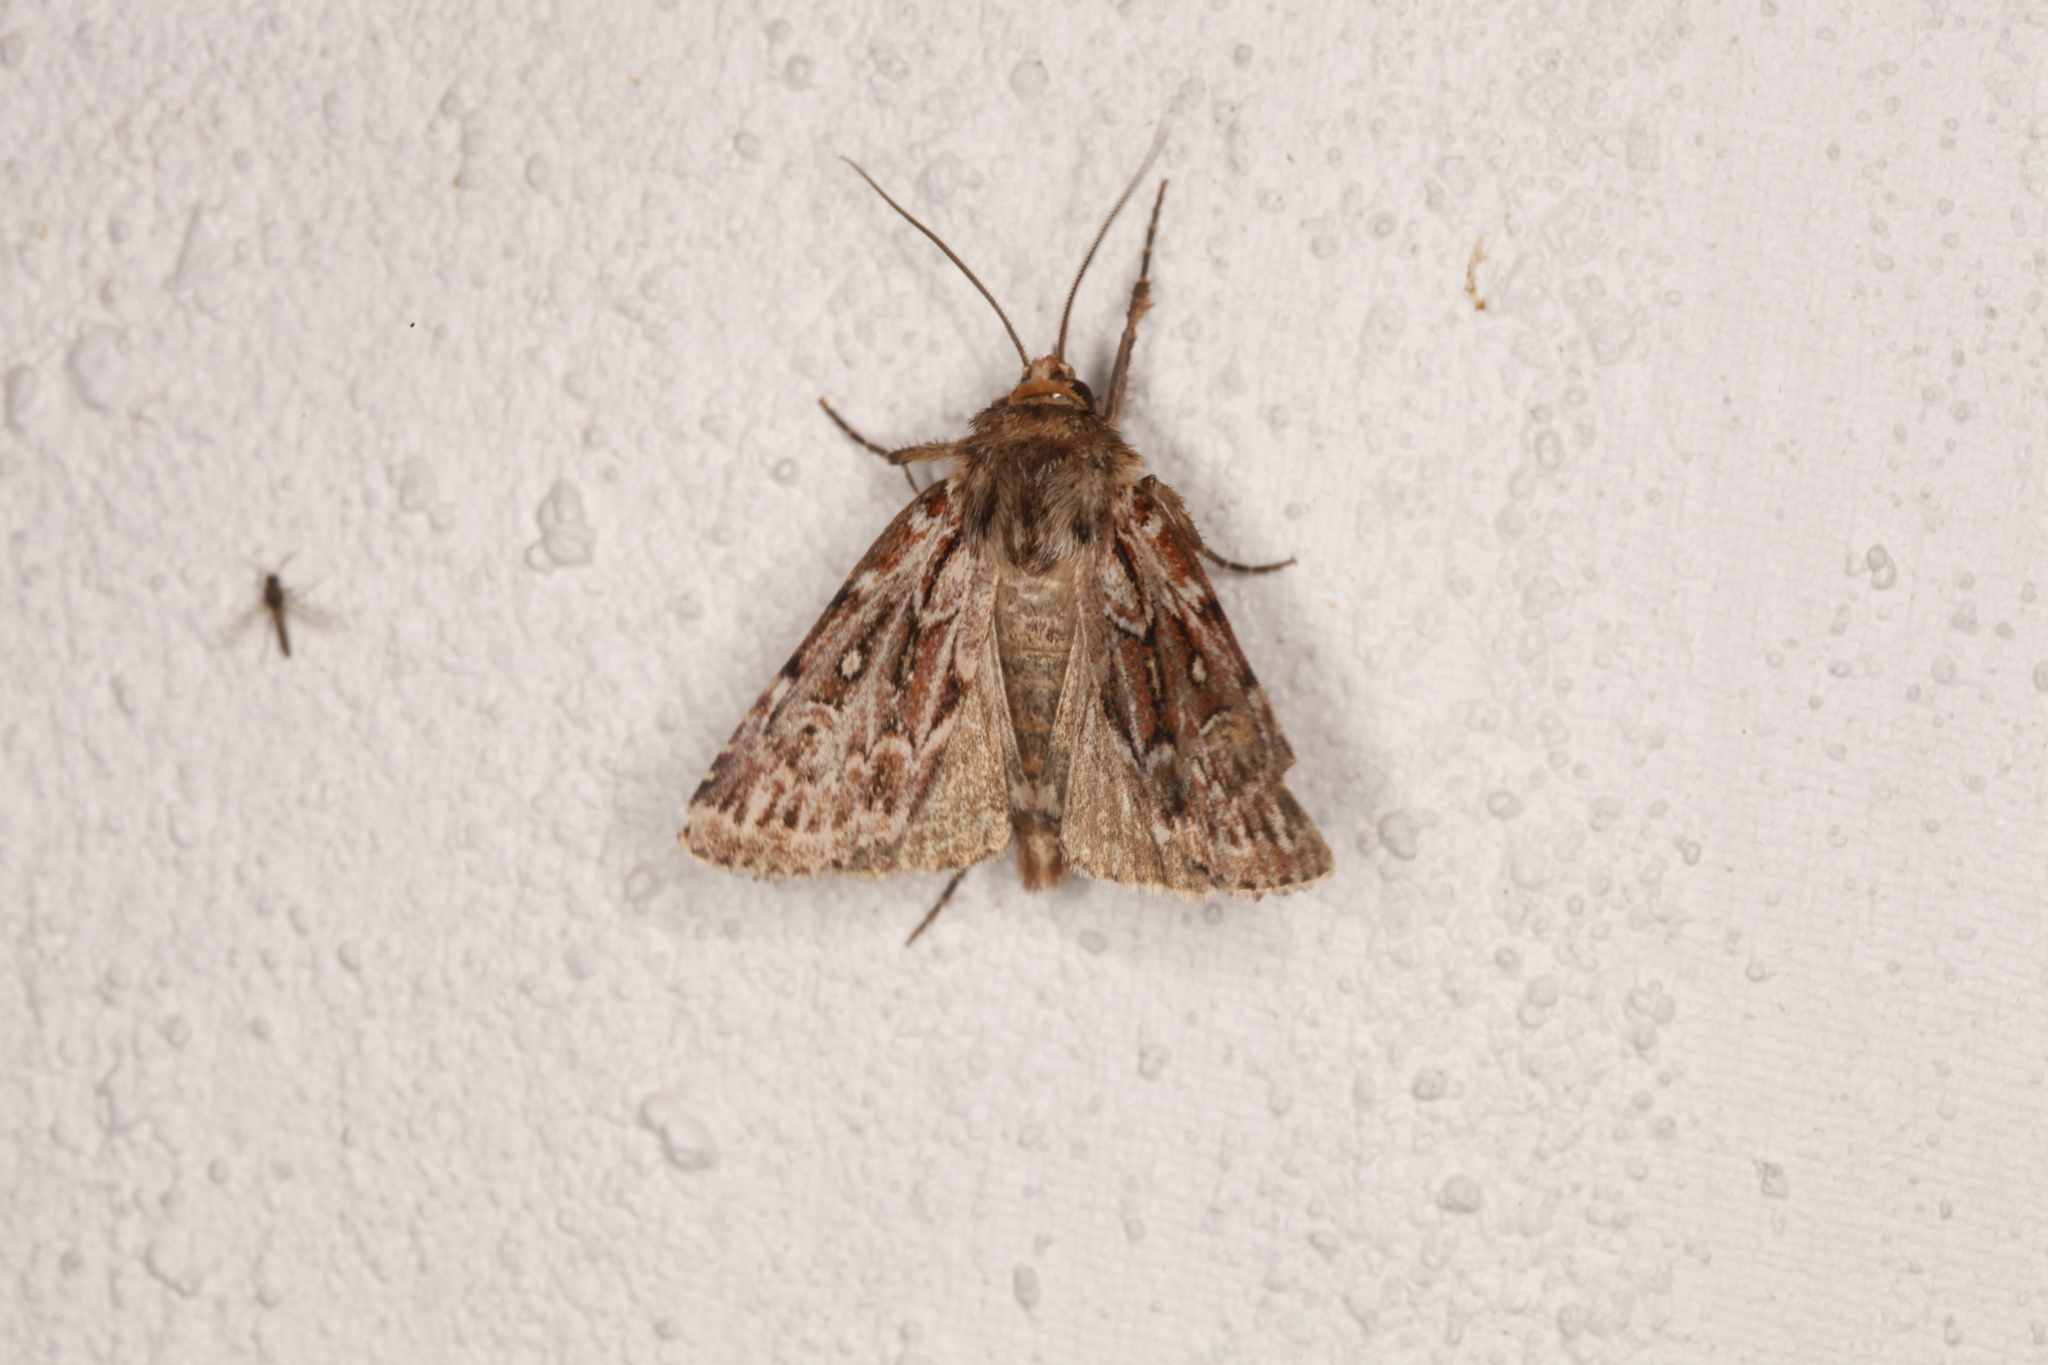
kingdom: Animalia
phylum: Arthropoda
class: Insecta
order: Lepidoptera
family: Noctuidae
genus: Lycophotia
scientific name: Lycophotia porphyrea
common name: True lover's knot
